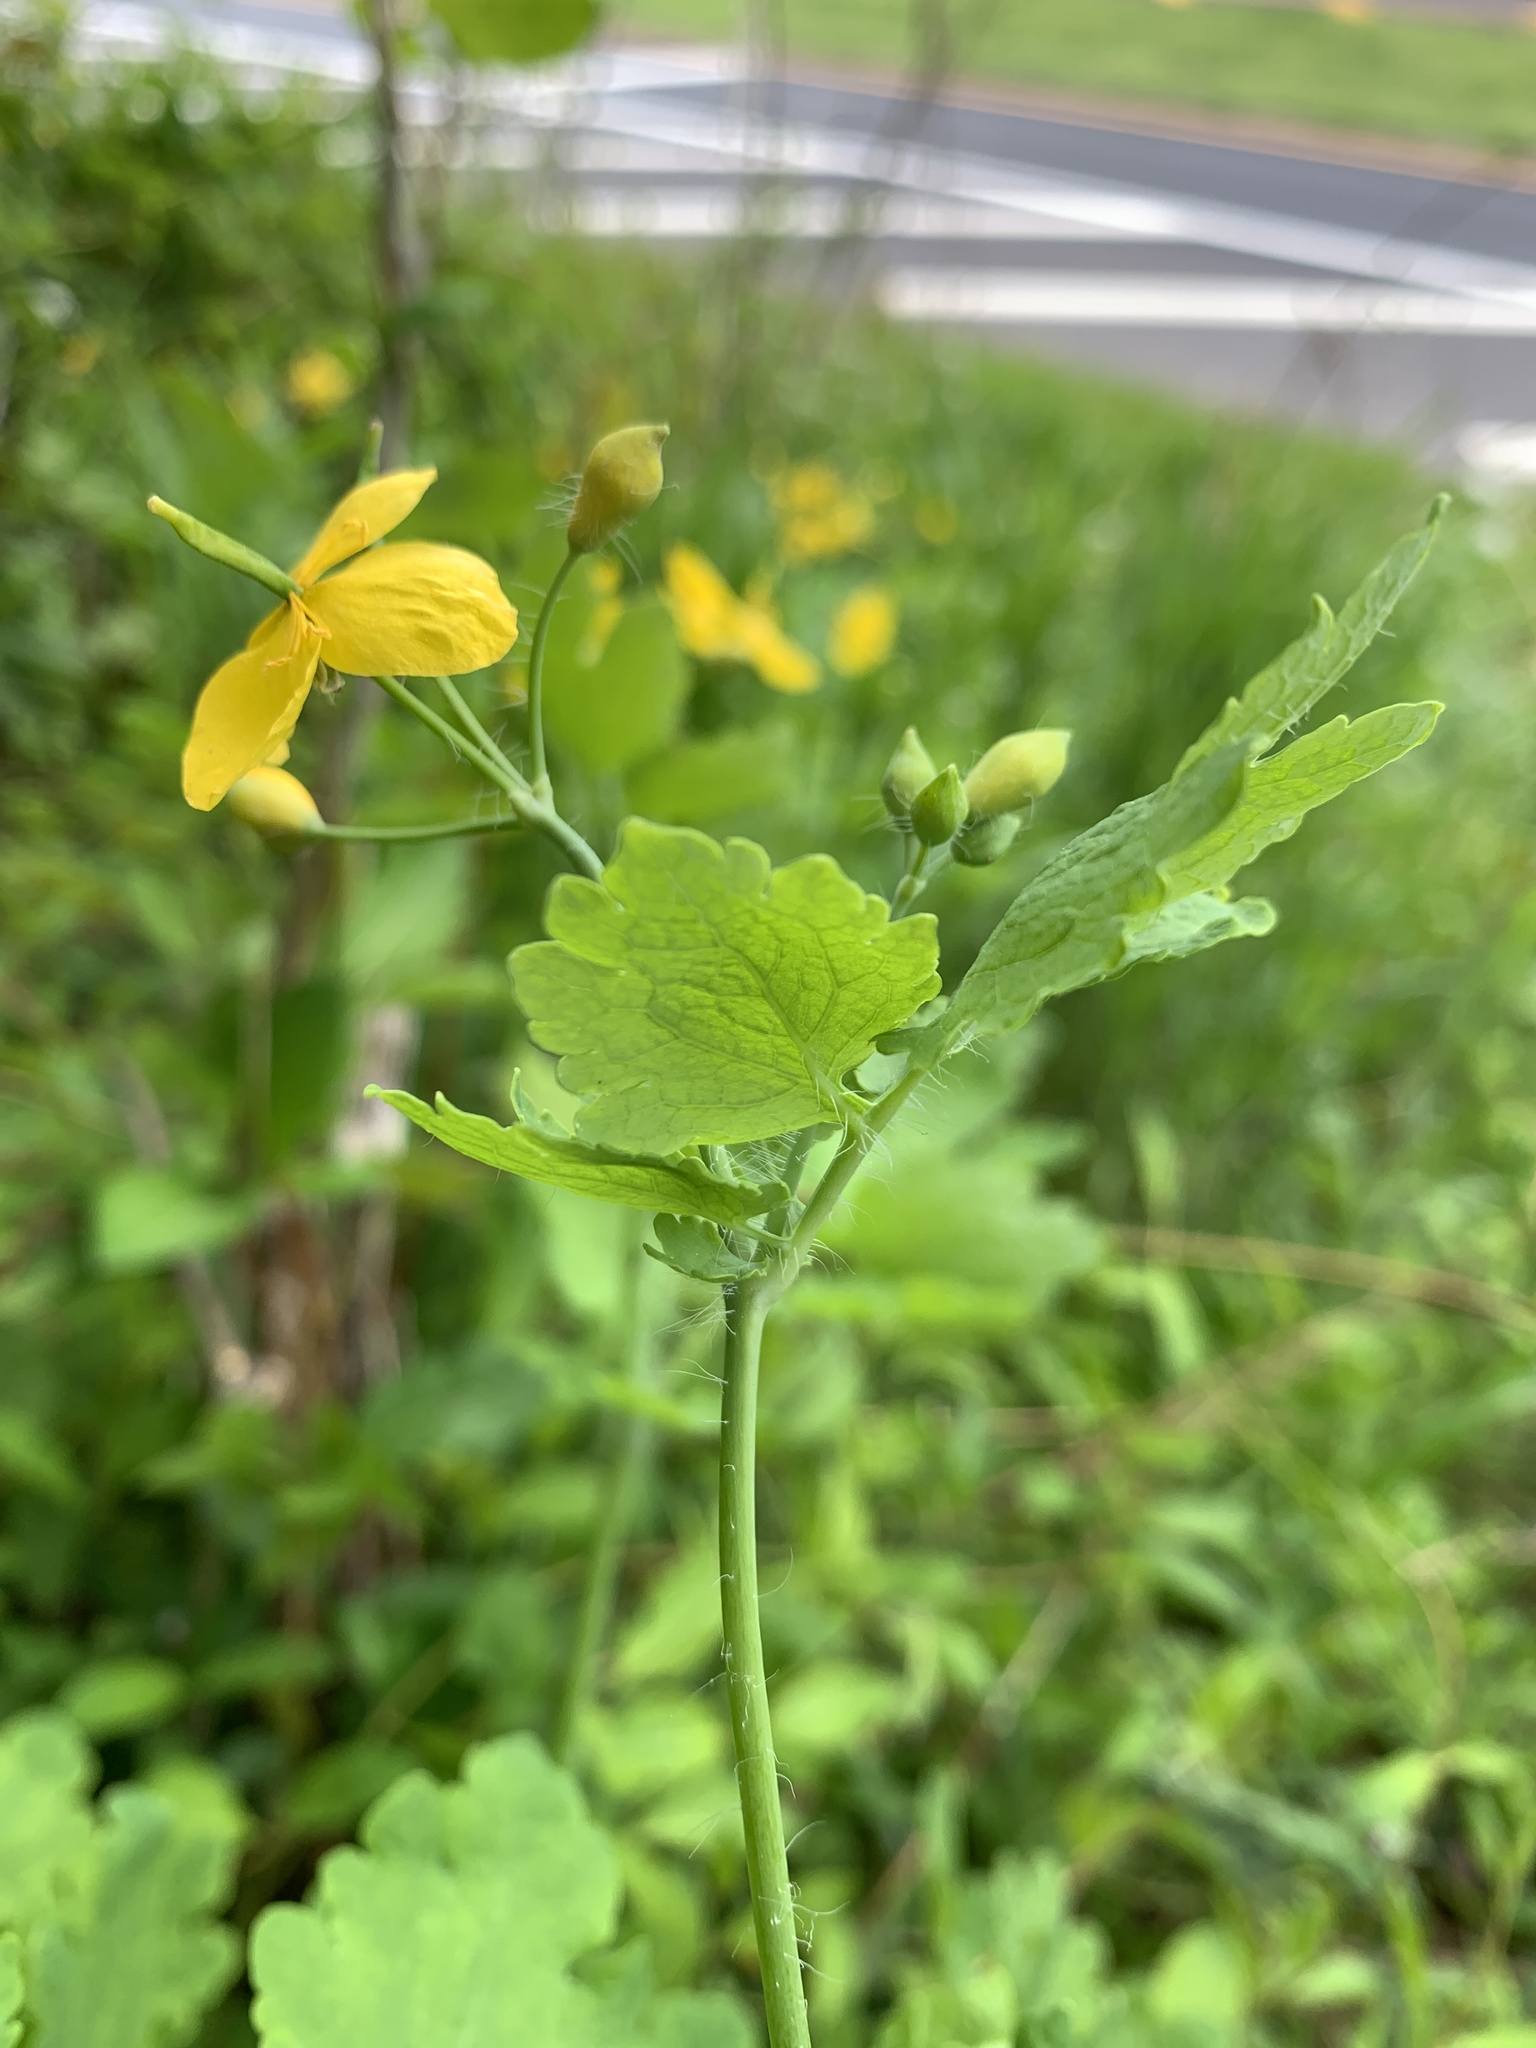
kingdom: Plantae
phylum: Tracheophyta
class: Magnoliopsida
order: Ranunculales
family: Papaveraceae
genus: Chelidonium
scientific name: Chelidonium majus
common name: Greater celandine
